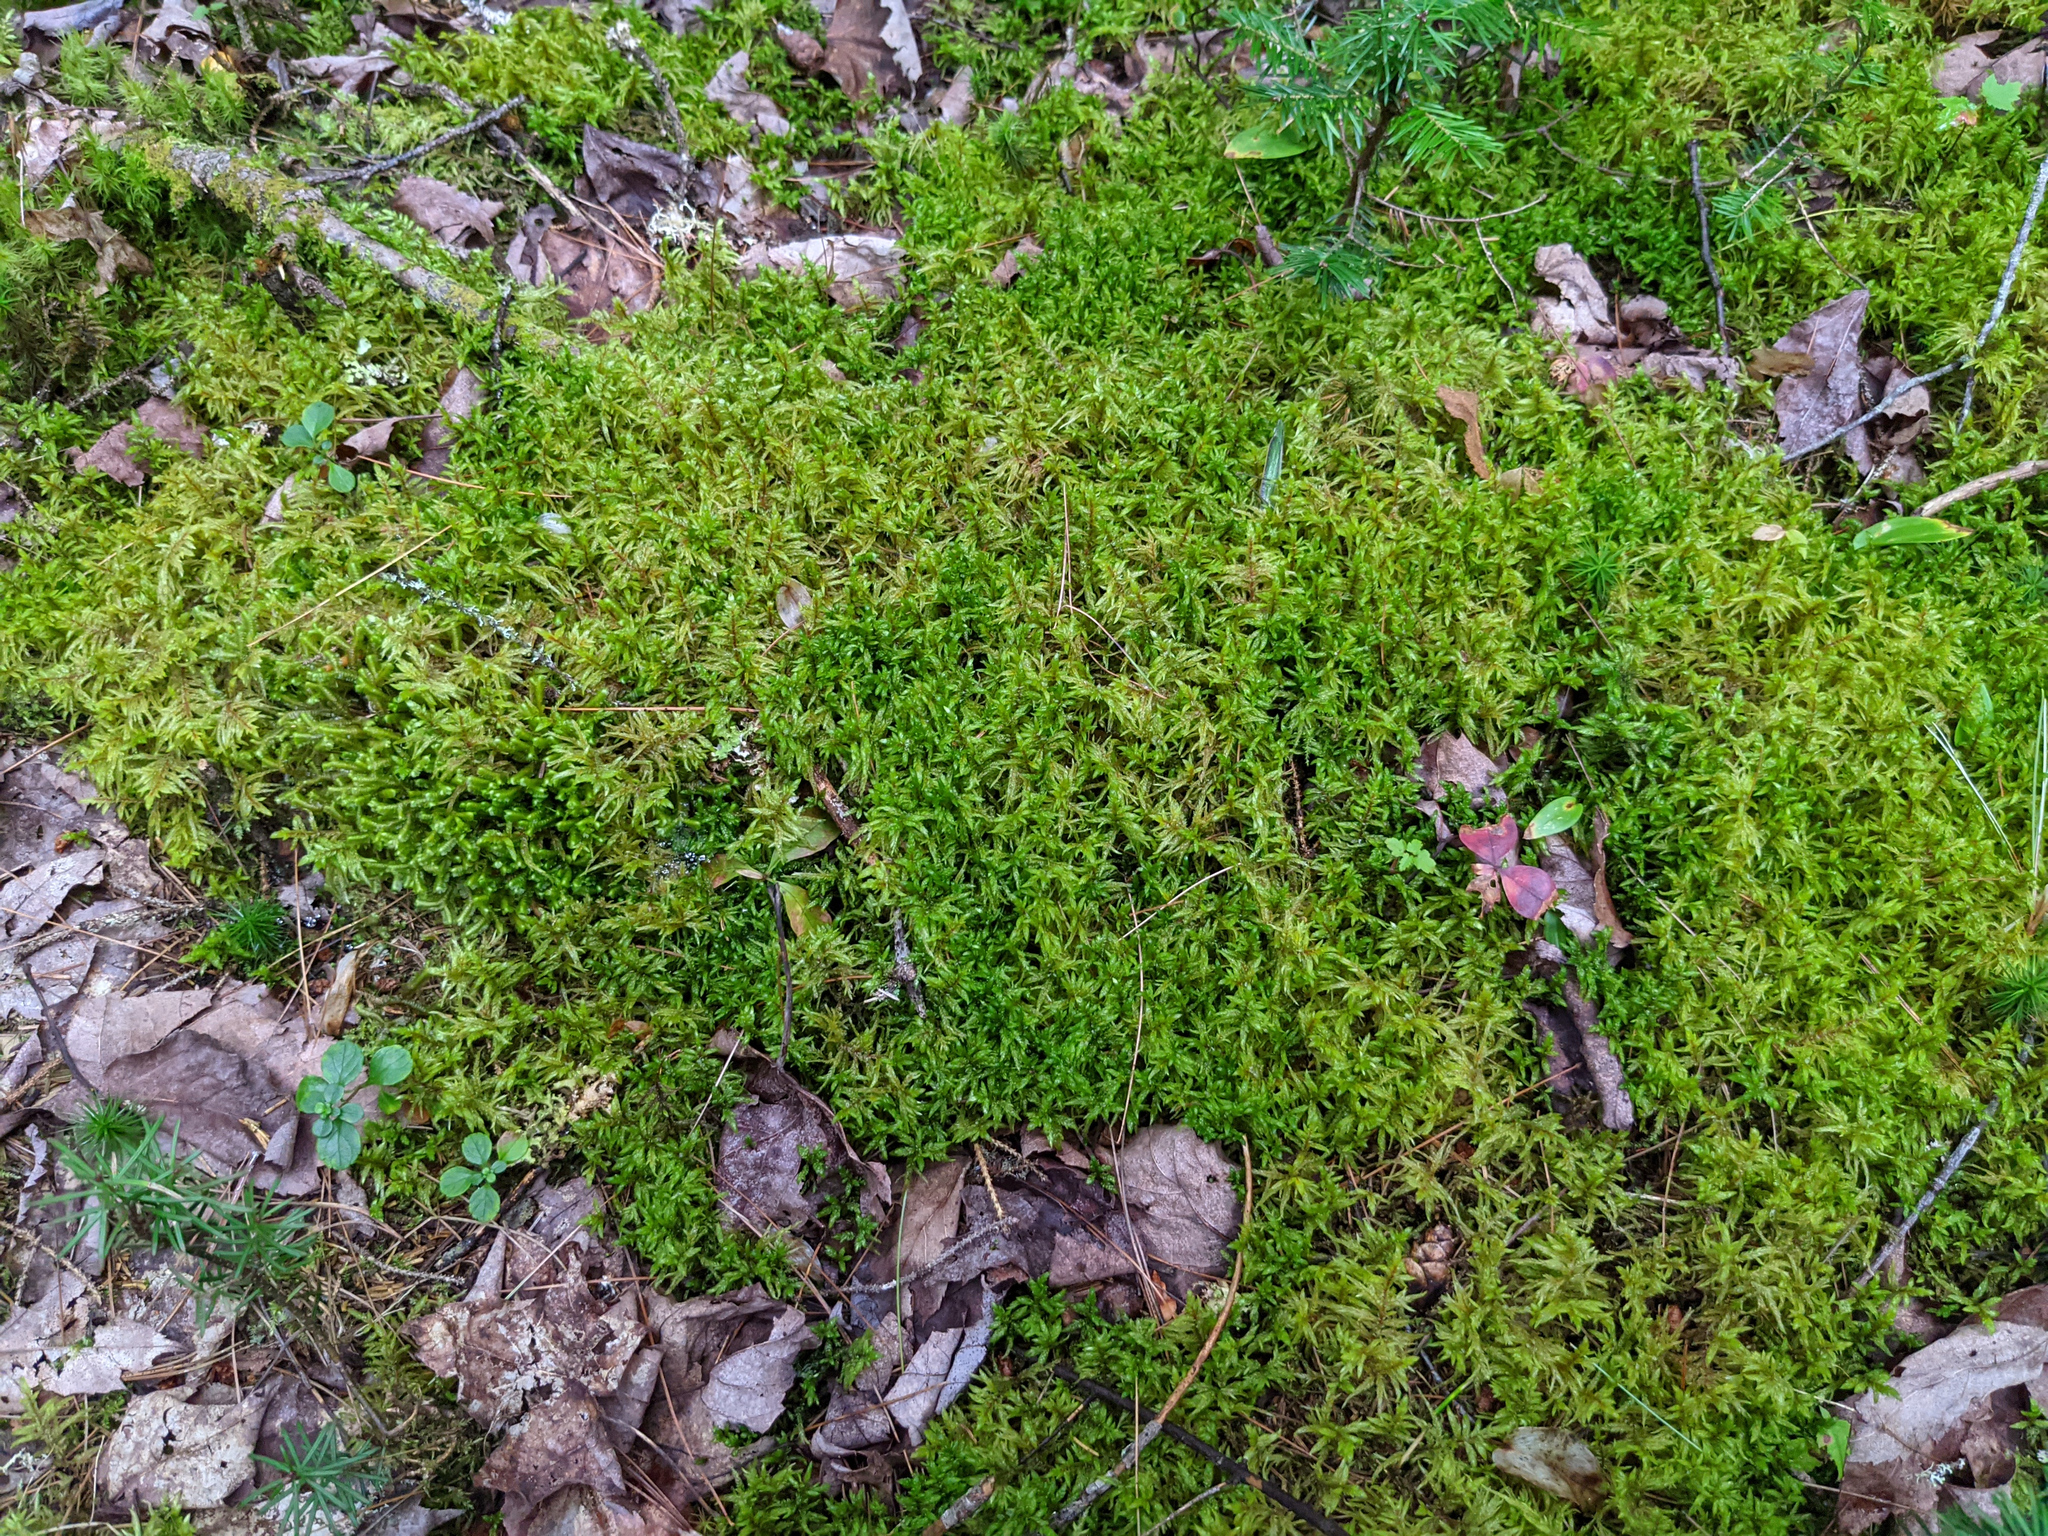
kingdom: Plantae
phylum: Bryophyta
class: Bryopsida
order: Hypnales
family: Hylocomiaceae
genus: Pleurozium
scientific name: Pleurozium schreberi
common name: Red-stemmed feather moss
